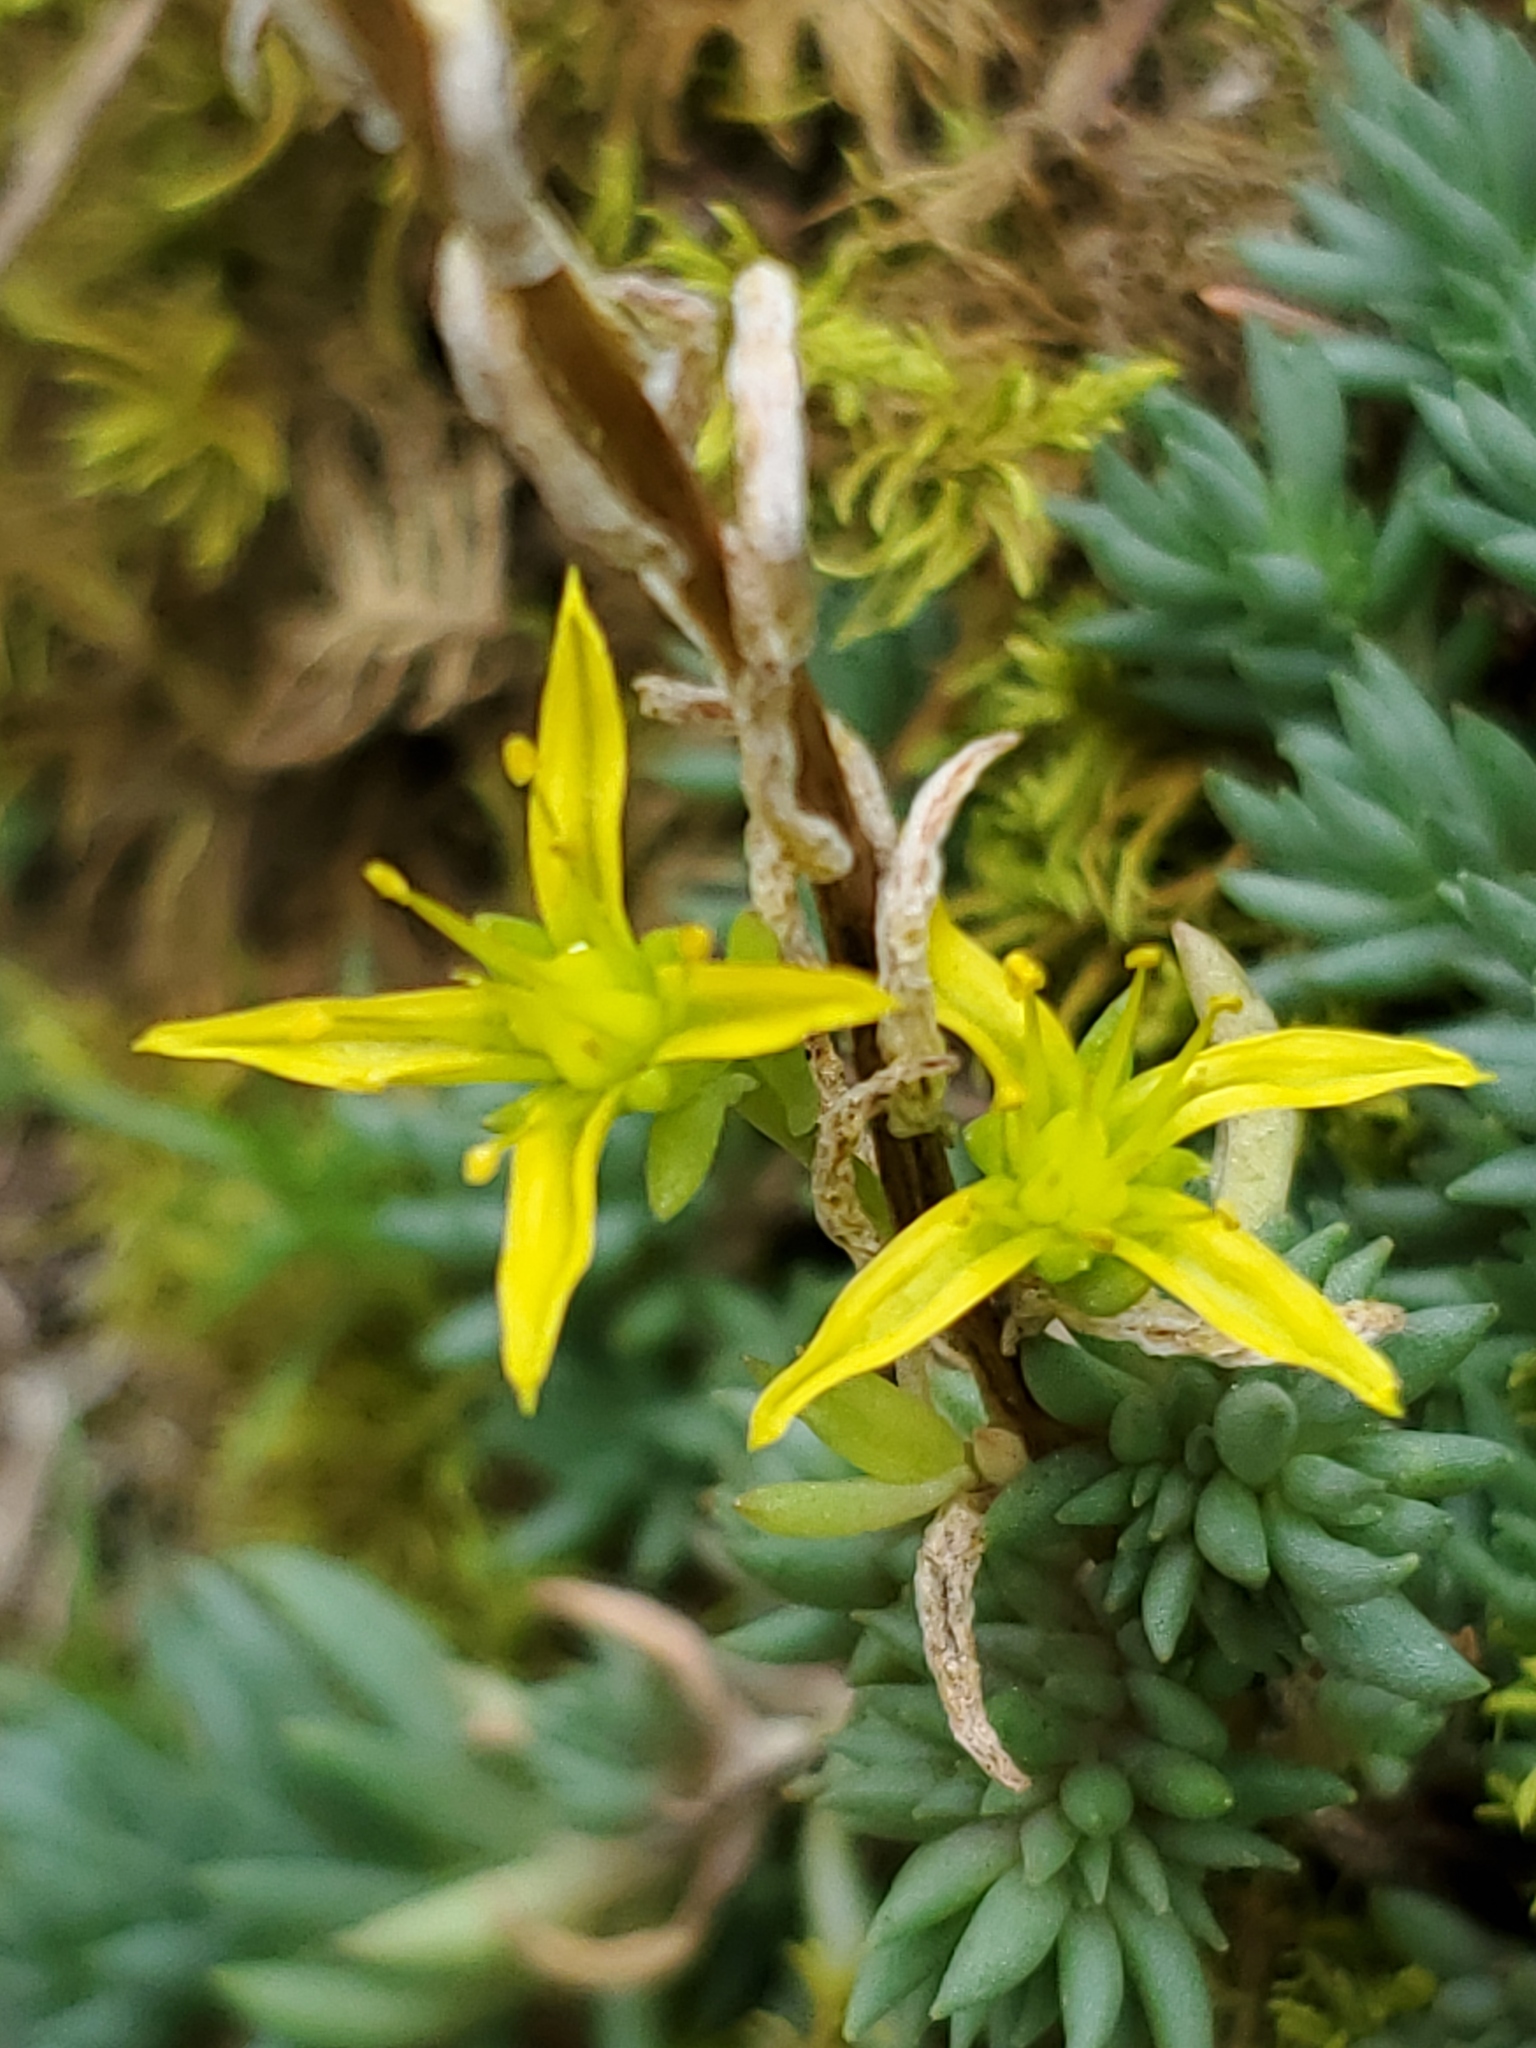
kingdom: Plantae
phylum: Tracheophyta
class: Magnoliopsida
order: Saxifragales
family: Crassulaceae
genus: Sedum
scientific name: Sedum lanceolatum
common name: Common stonecrop
